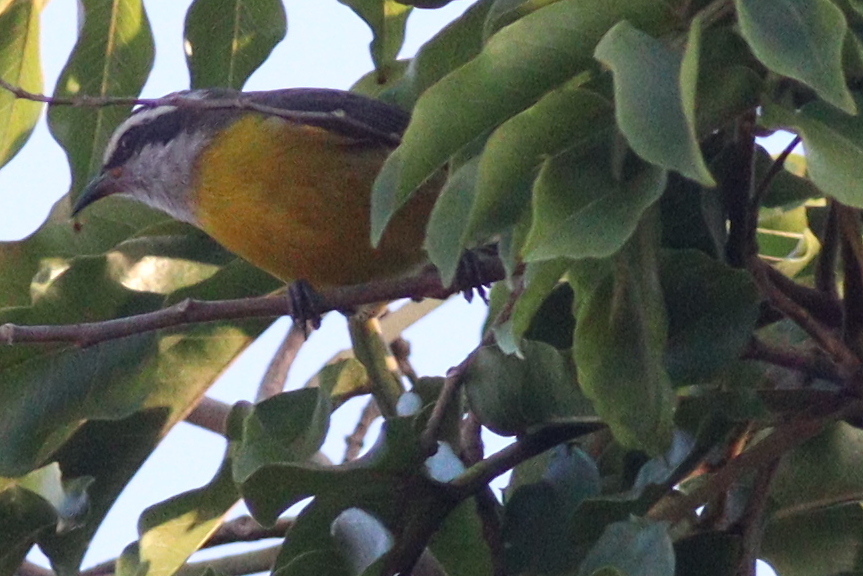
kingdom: Animalia
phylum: Chordata
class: Aves
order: Passeriformes
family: Thraupidae
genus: Coereba
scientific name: Coereba flaveola
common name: Bananaquit
